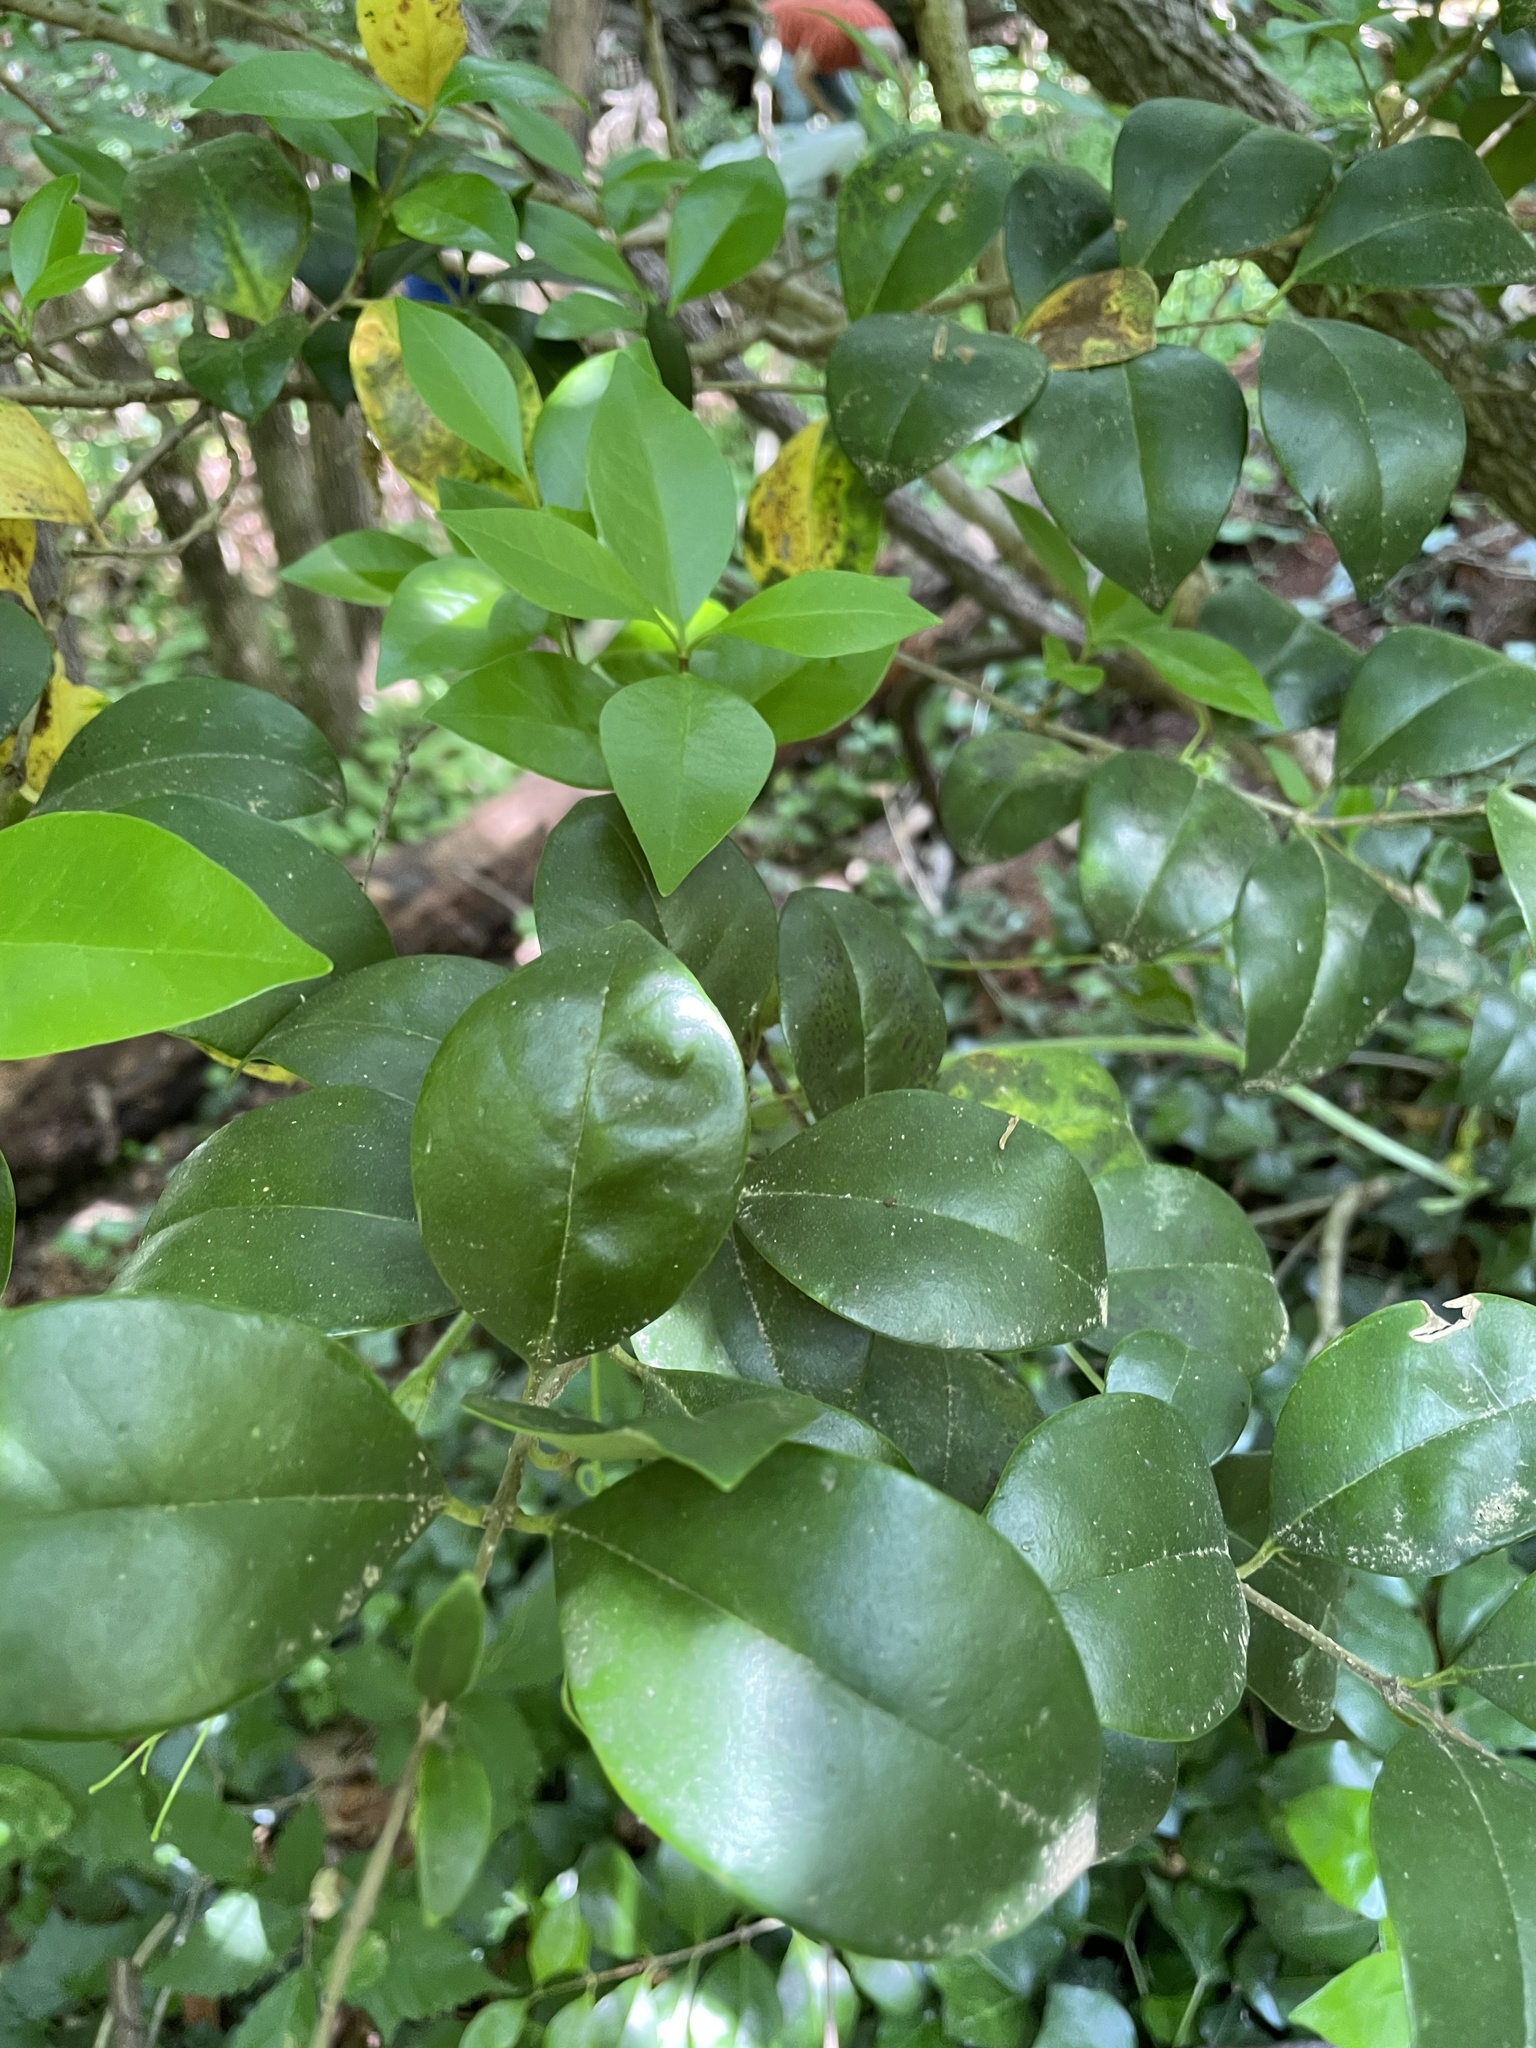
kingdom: Plantae
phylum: Tracheophyta
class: Magnoliopsida
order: Lamiales
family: Oleaceae
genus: Ligustrum
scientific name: Ligustrum japonicum
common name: Japanese privet
